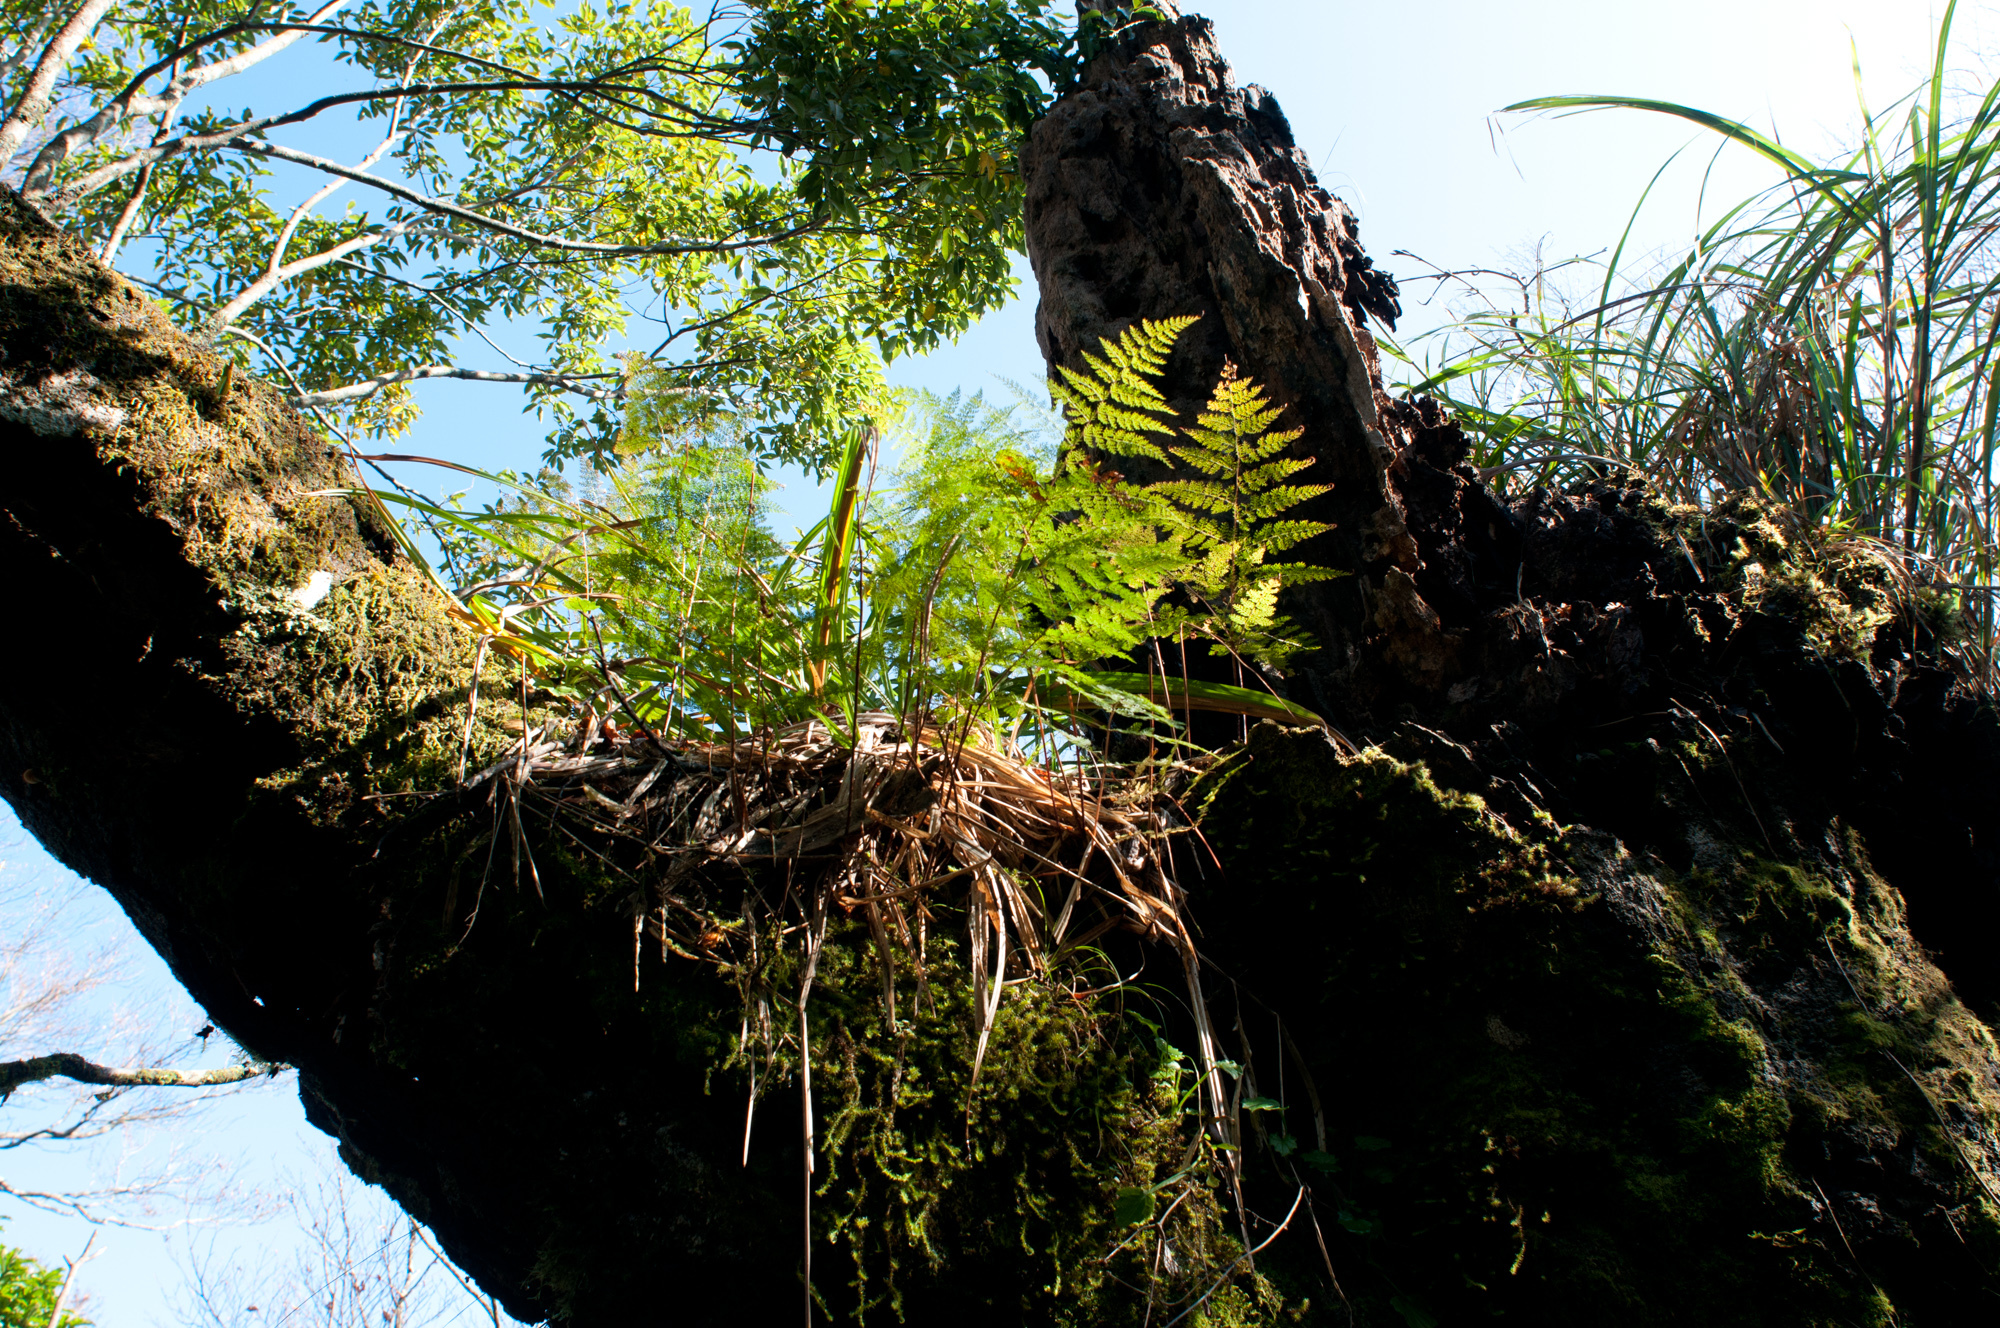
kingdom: Plantae
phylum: Tracheophyta
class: Polypodiopsida
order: Polypodiales
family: Davalliaceae
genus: Davallia
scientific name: Davallia perdurans
